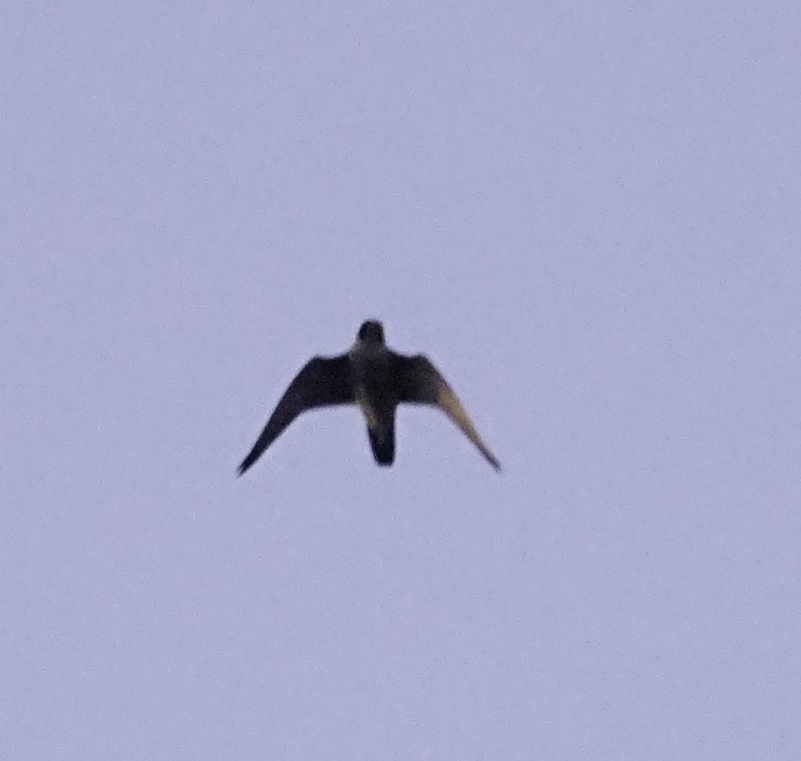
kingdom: Animalia
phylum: Chordata
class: Aves
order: Falconiformes
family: Falconidae
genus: Falco
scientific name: Falco peregrinus
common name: Peregrine falcon
